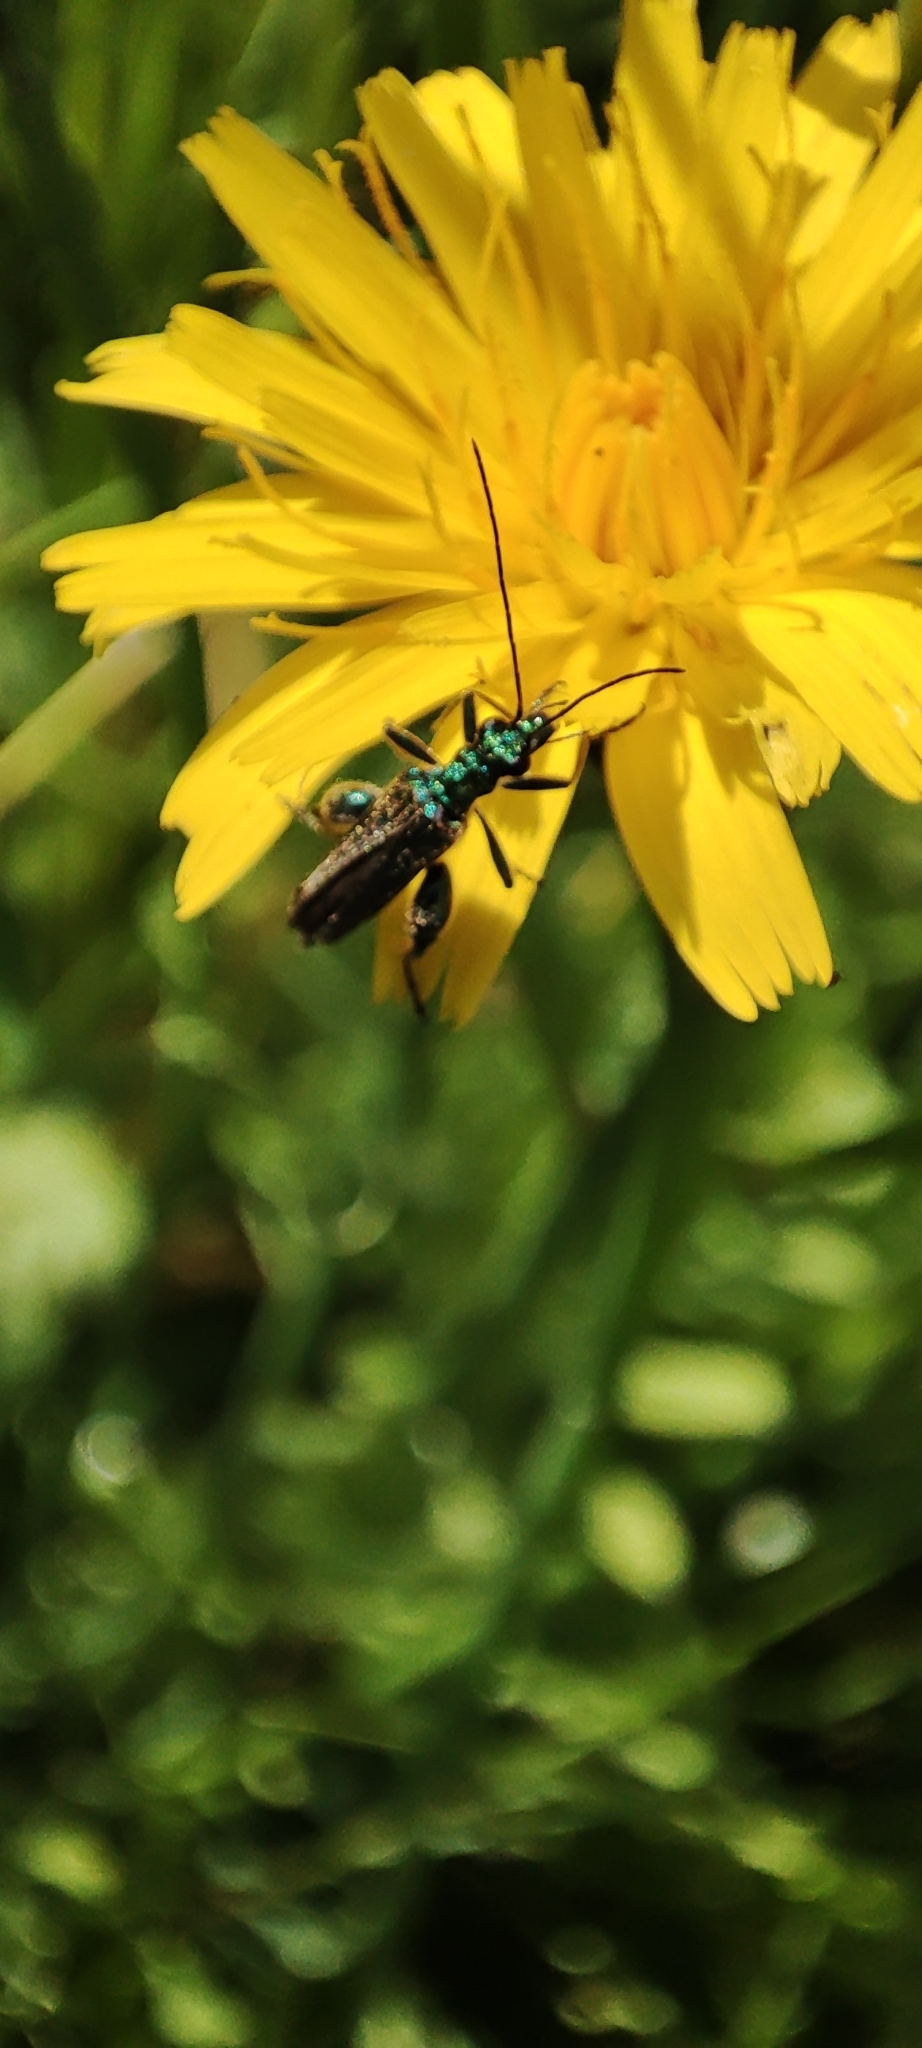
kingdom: Animalia
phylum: Arthropoda
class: Insecta
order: Coleoptera
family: Oedemeridae
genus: Oedemera
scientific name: Oedemera nobilis
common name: Swollen-thighed beetle
